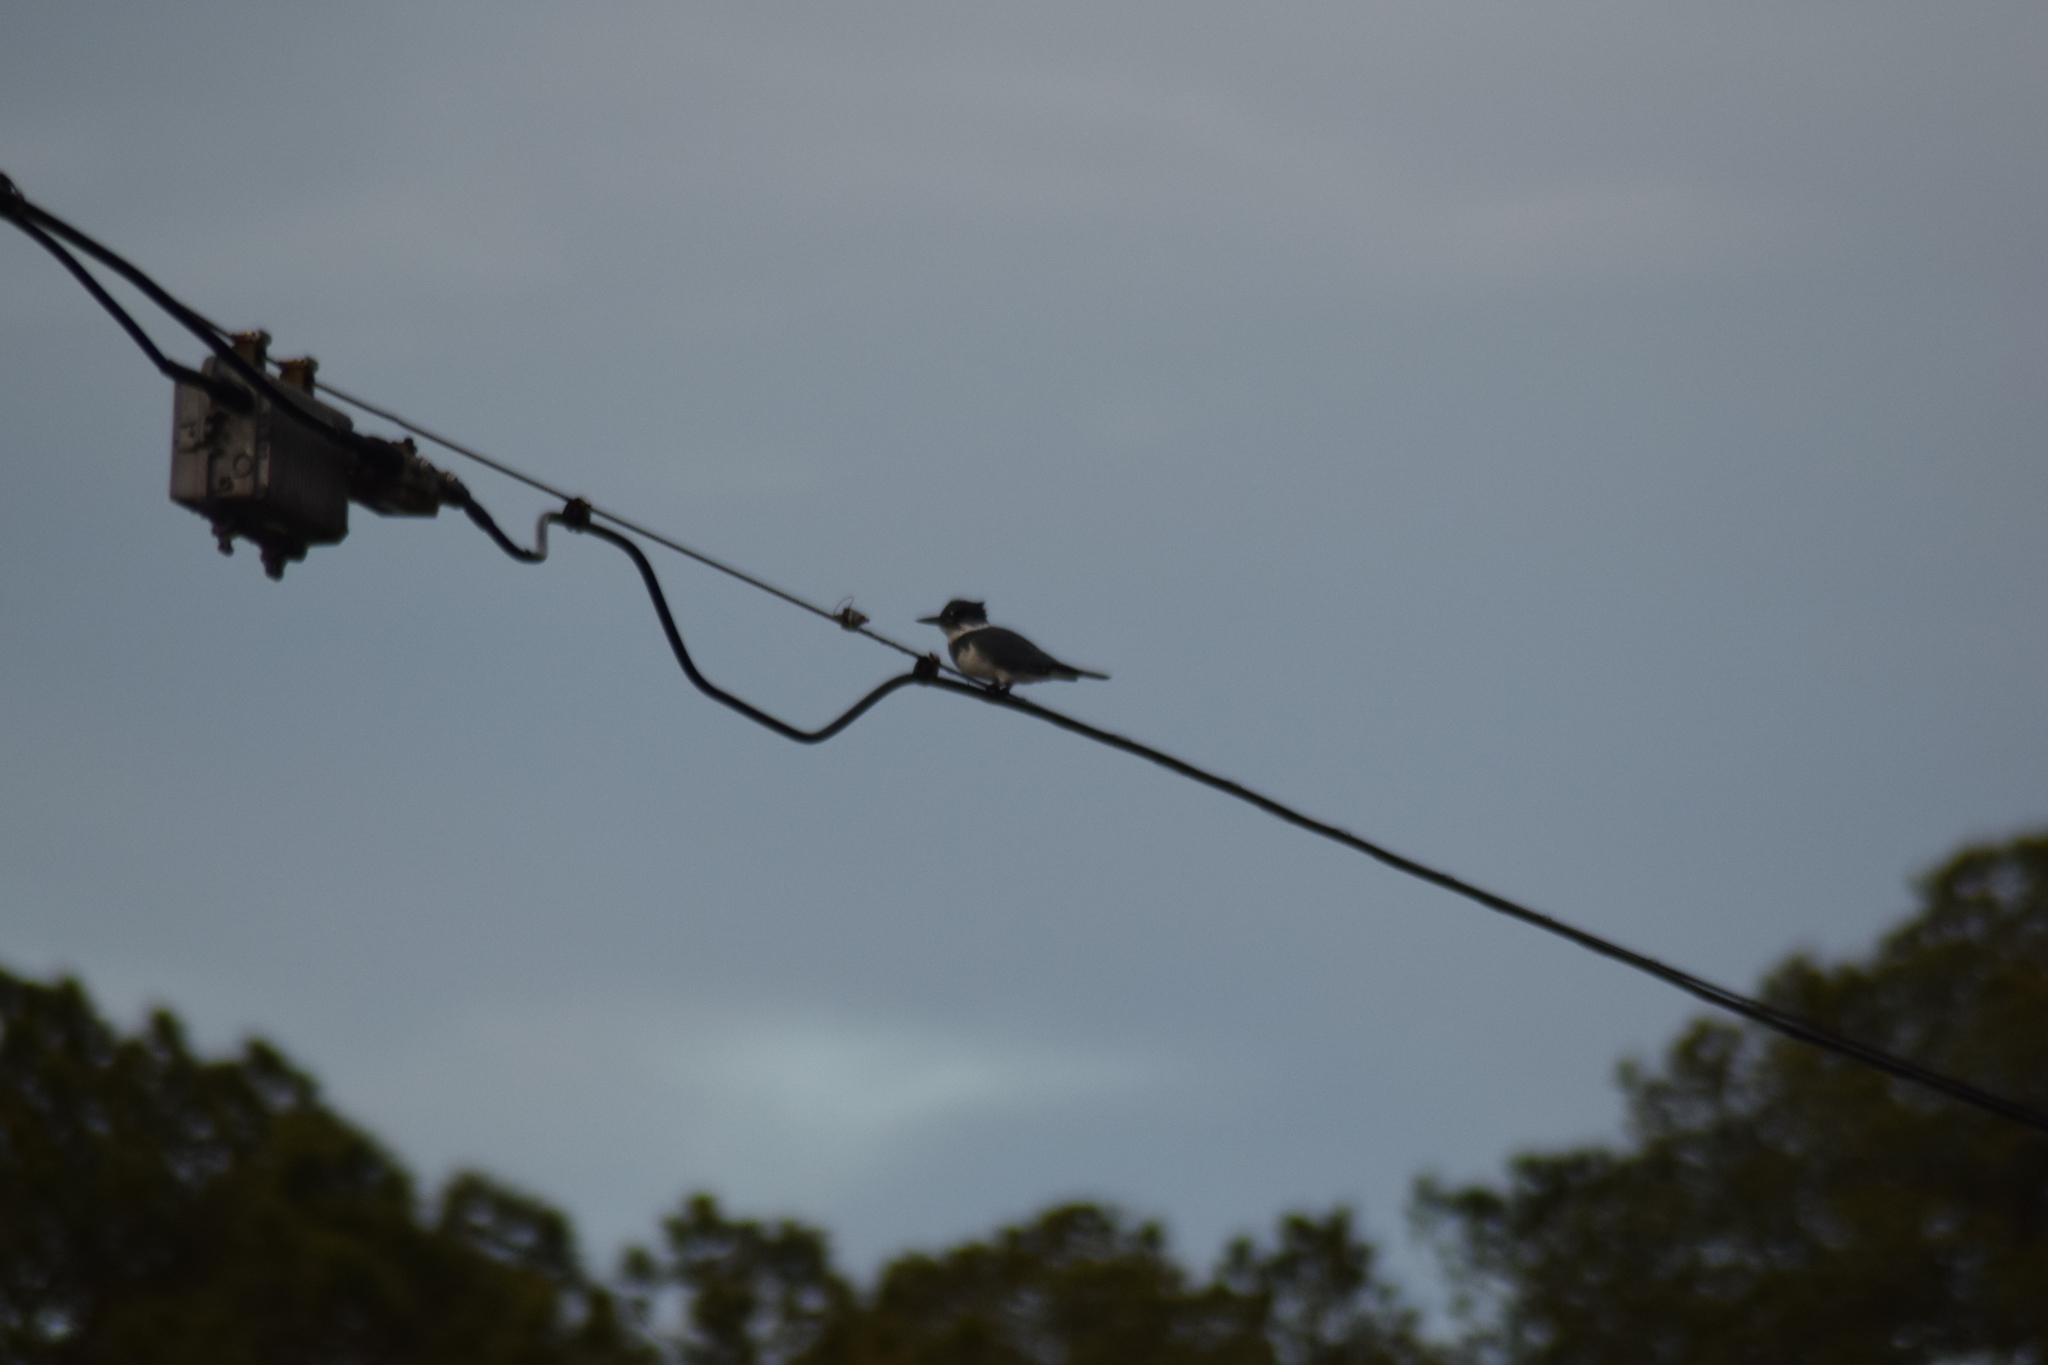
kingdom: Animalia
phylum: Chordata
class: Aves
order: Coraciiformes
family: Alcedinidae
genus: Megaceryle
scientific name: Megaceryle alcyon
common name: Belted kingfisher
